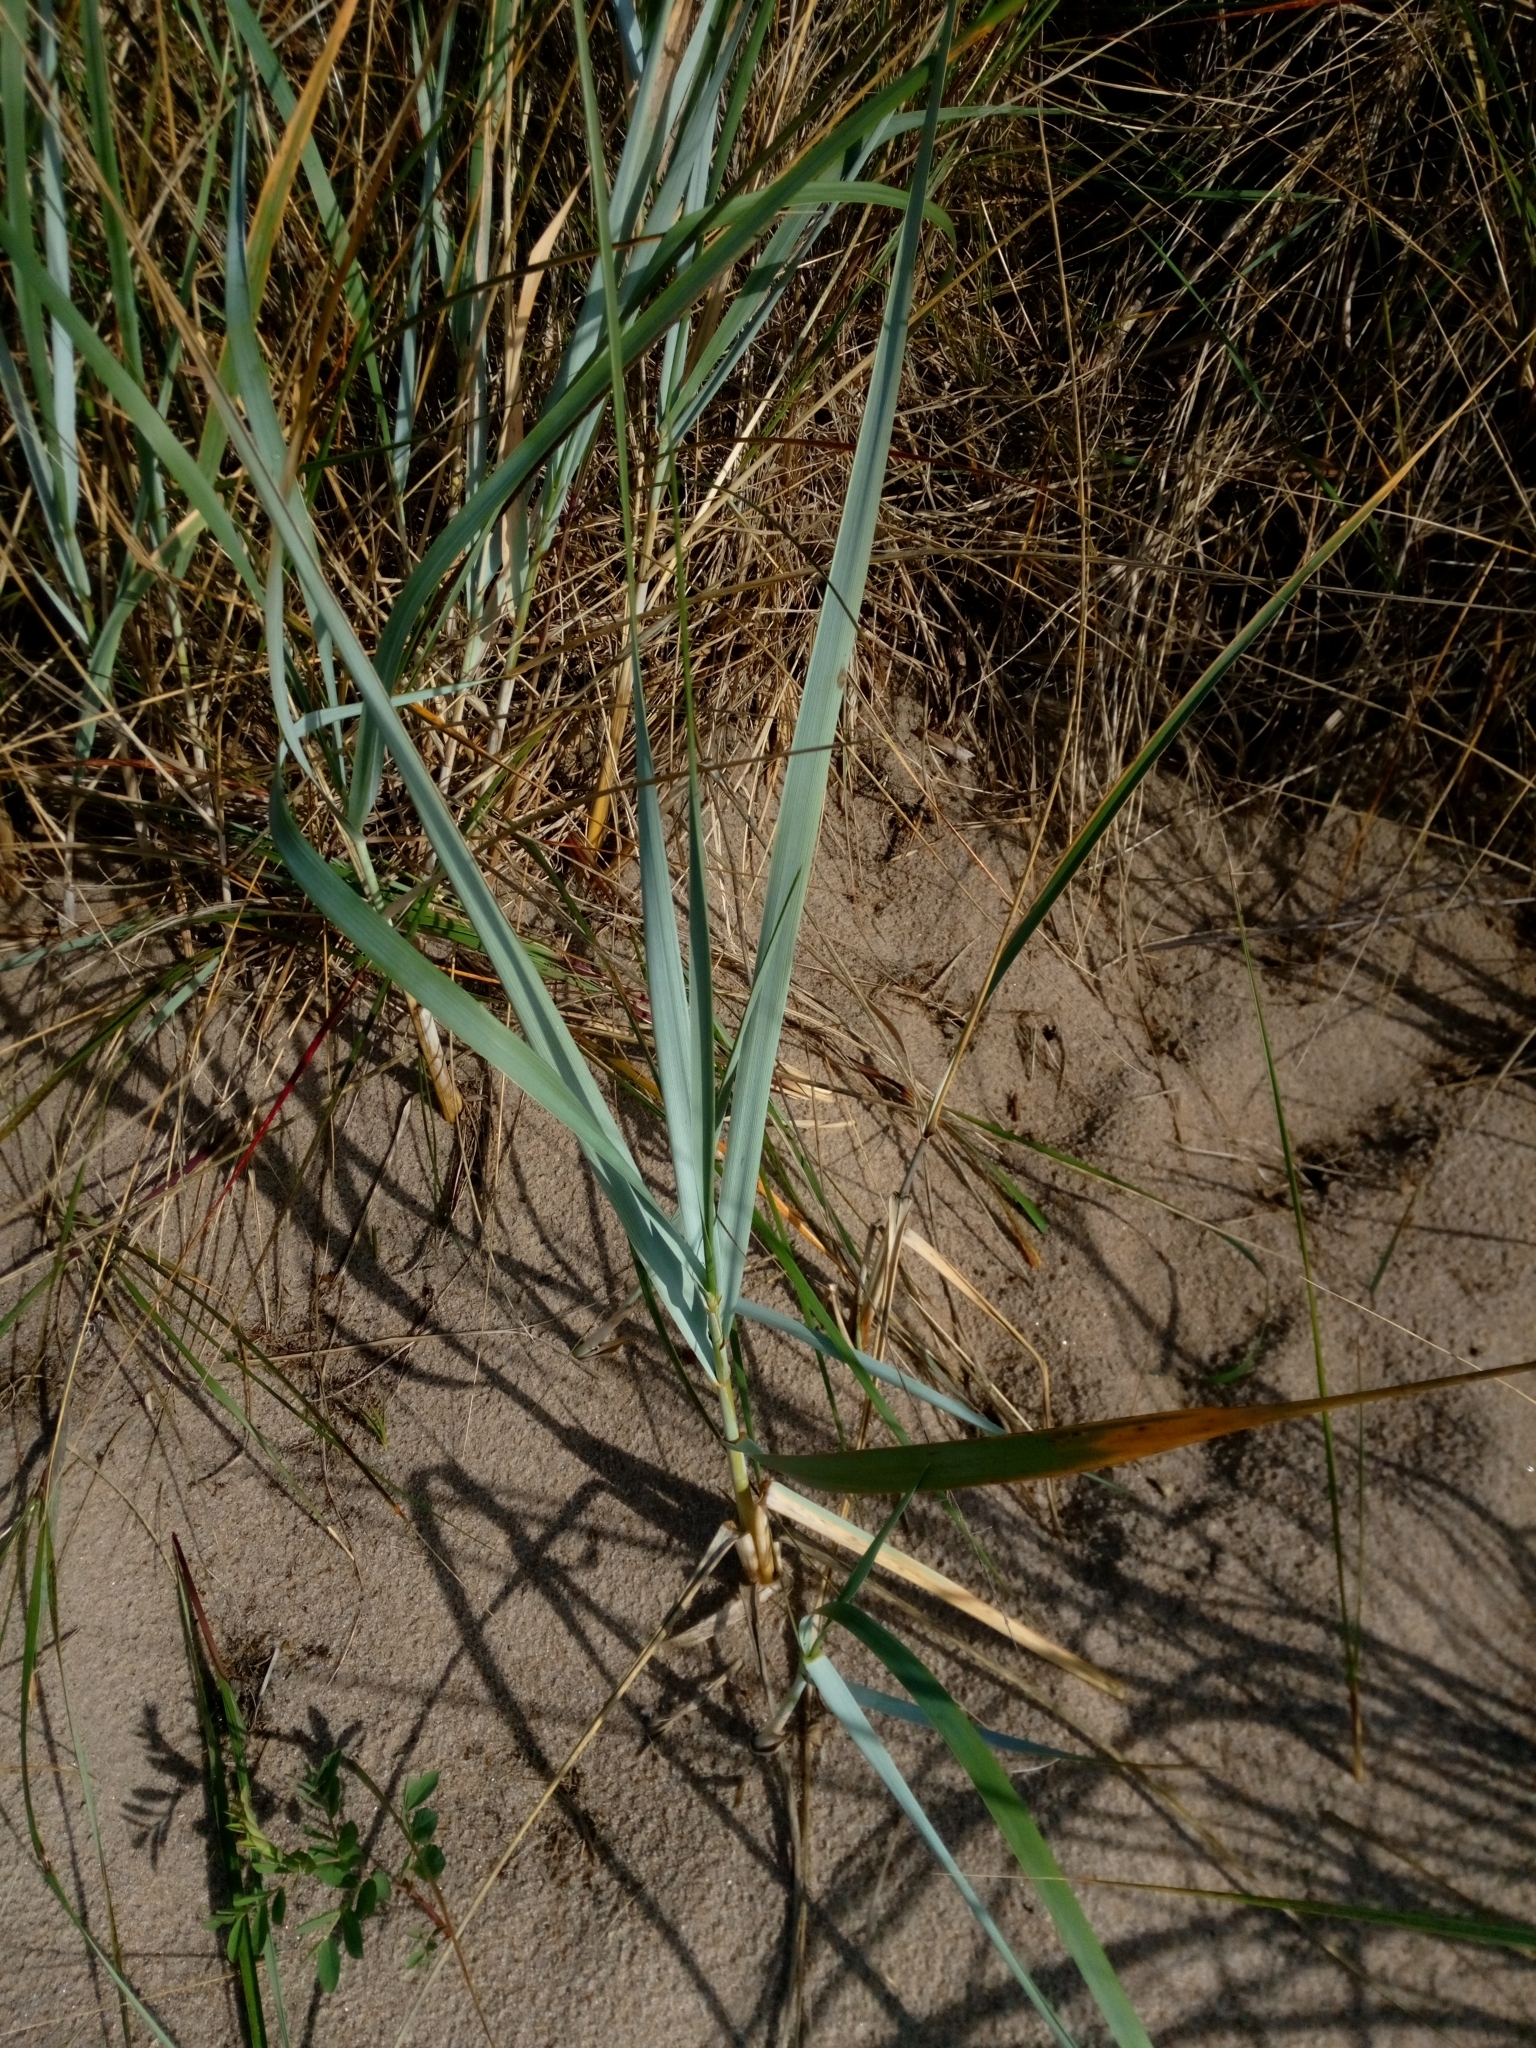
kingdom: Plantae
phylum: Tracheophyta
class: Liliopsida
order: Poales
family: Poaceae
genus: Leymus
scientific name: Leymus arenarius
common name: Lyme-grass
